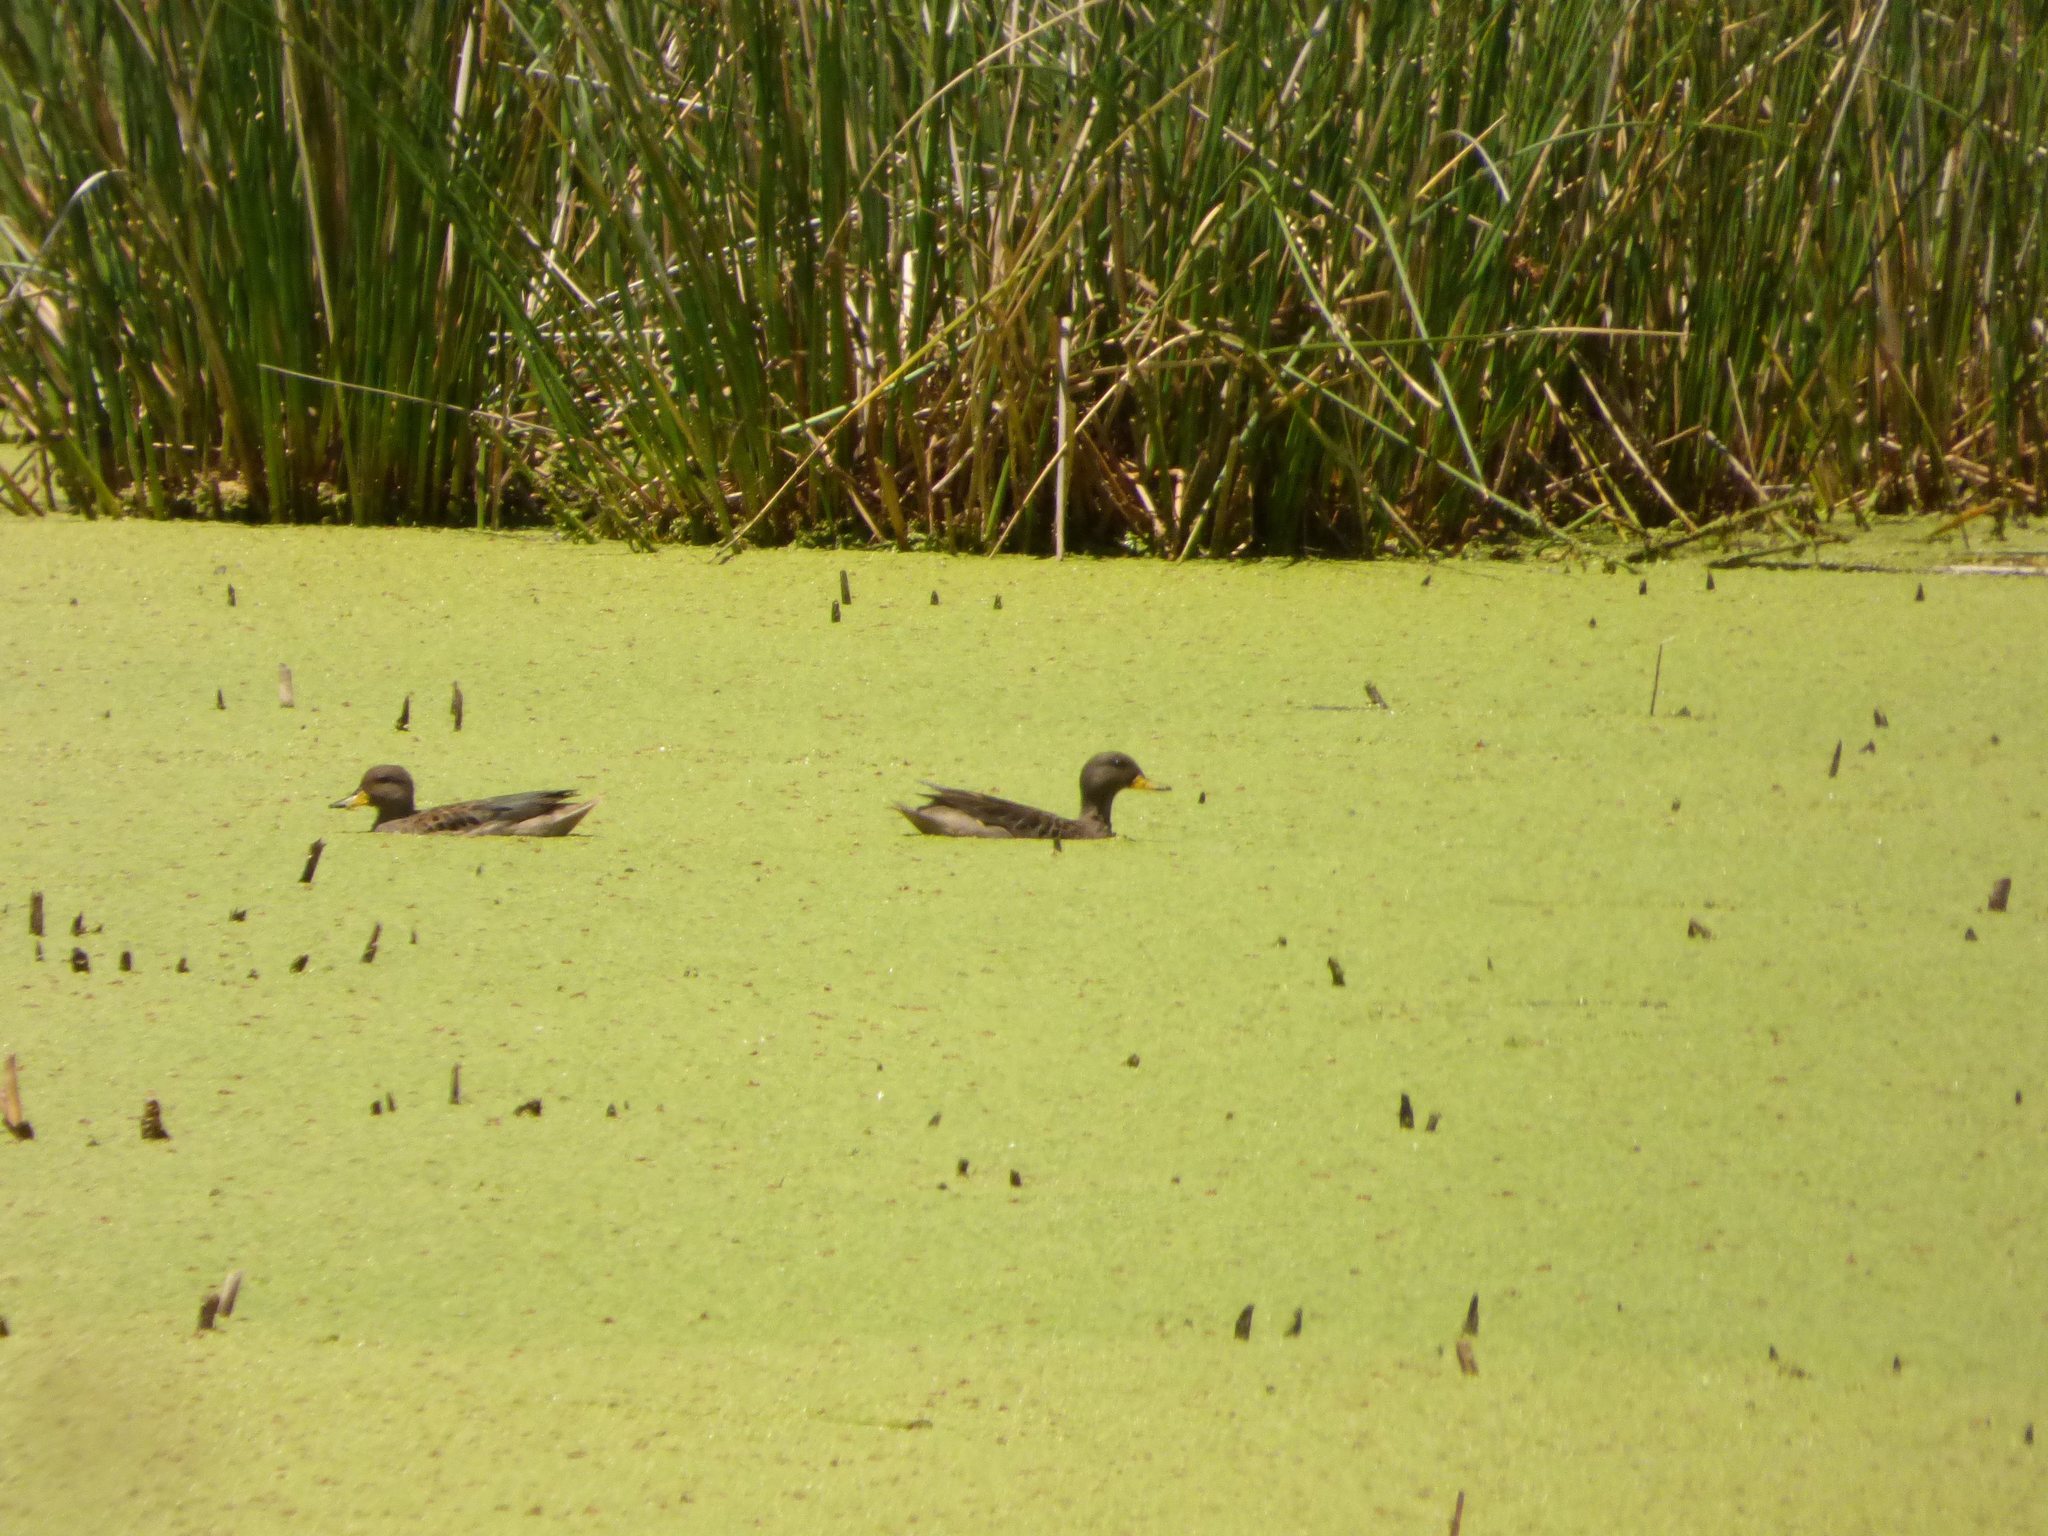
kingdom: Animalia
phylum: Chordata
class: Aves
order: Anseriformes
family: Anatidae
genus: Anas
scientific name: Anas flavirostris
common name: Yellow-billed teal
